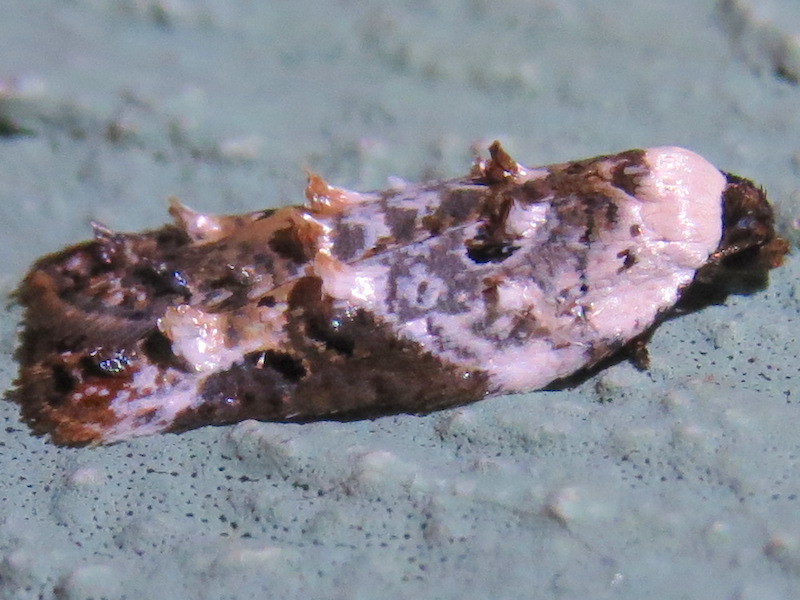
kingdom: Animalia
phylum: Arthropoda
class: Insecta
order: Lepidoptera
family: Tortricidae
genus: Acleris
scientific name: Acleris nivisellana
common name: Snowy-shouldered acleris moth
